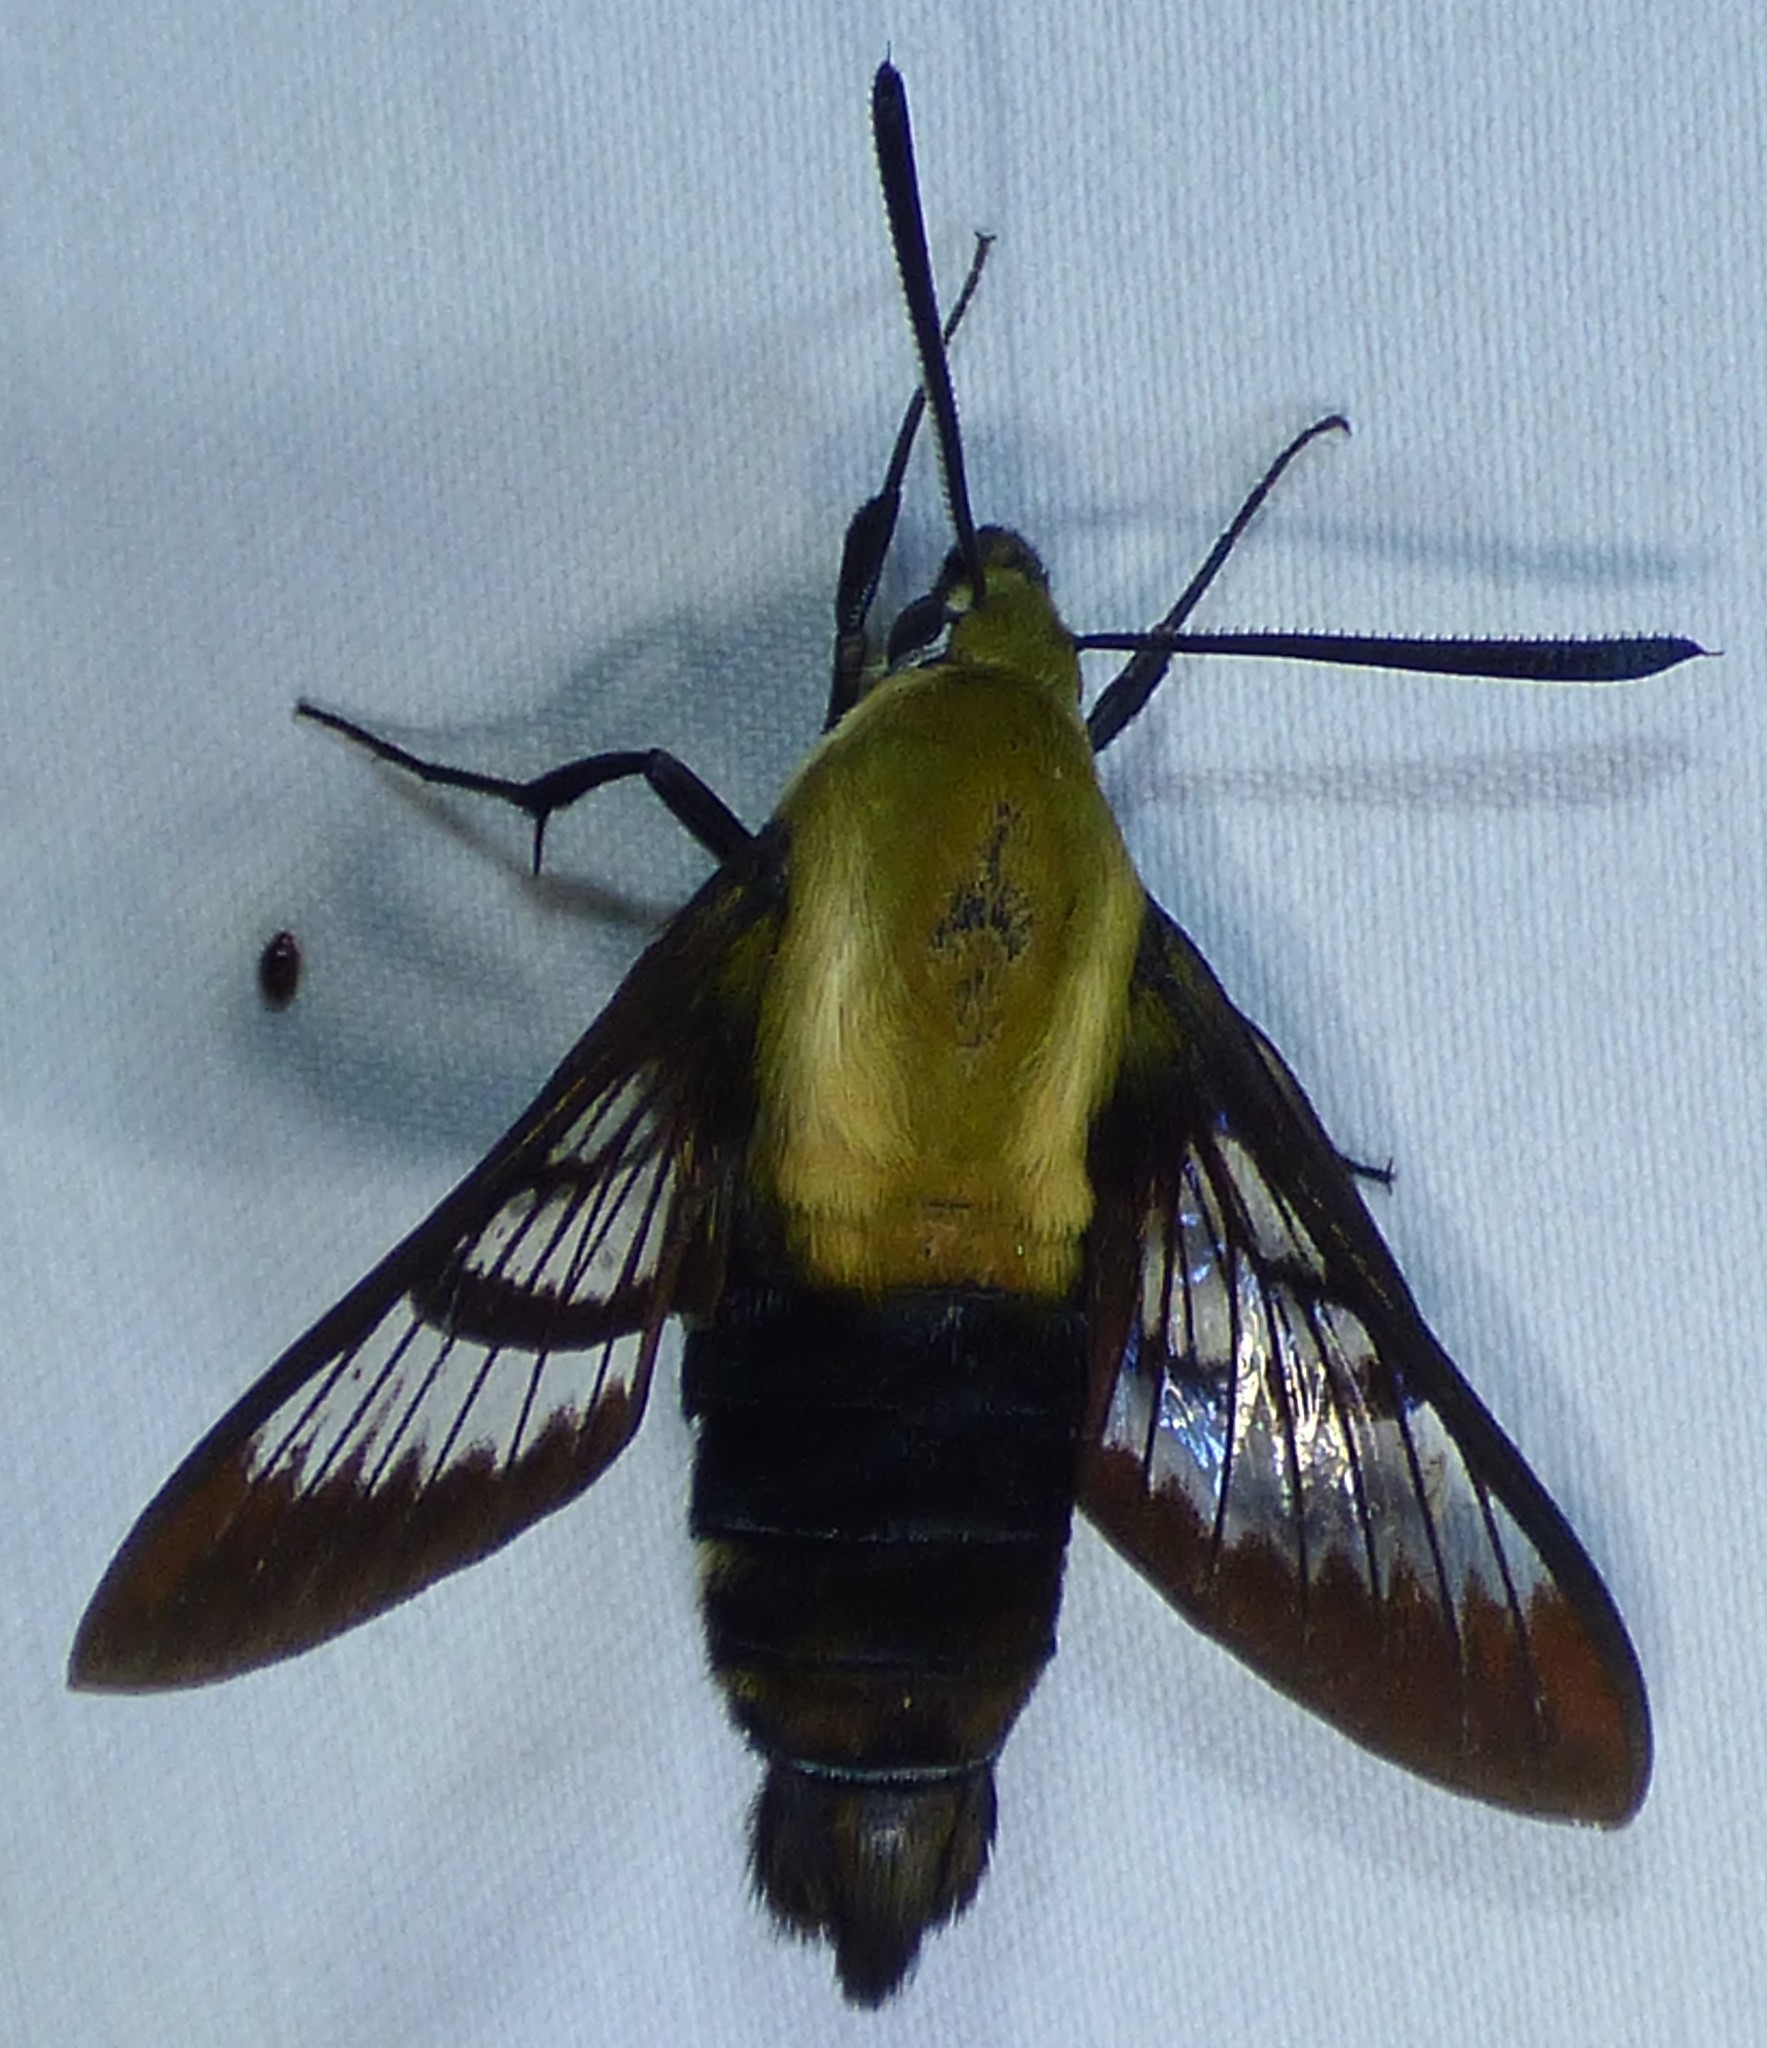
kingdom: Animalia
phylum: Arthropoda
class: Insecta
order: Lepidoptera
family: Sphingidae
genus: Hemaris
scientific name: Hemaris diffinis
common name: Bumblebee moth
